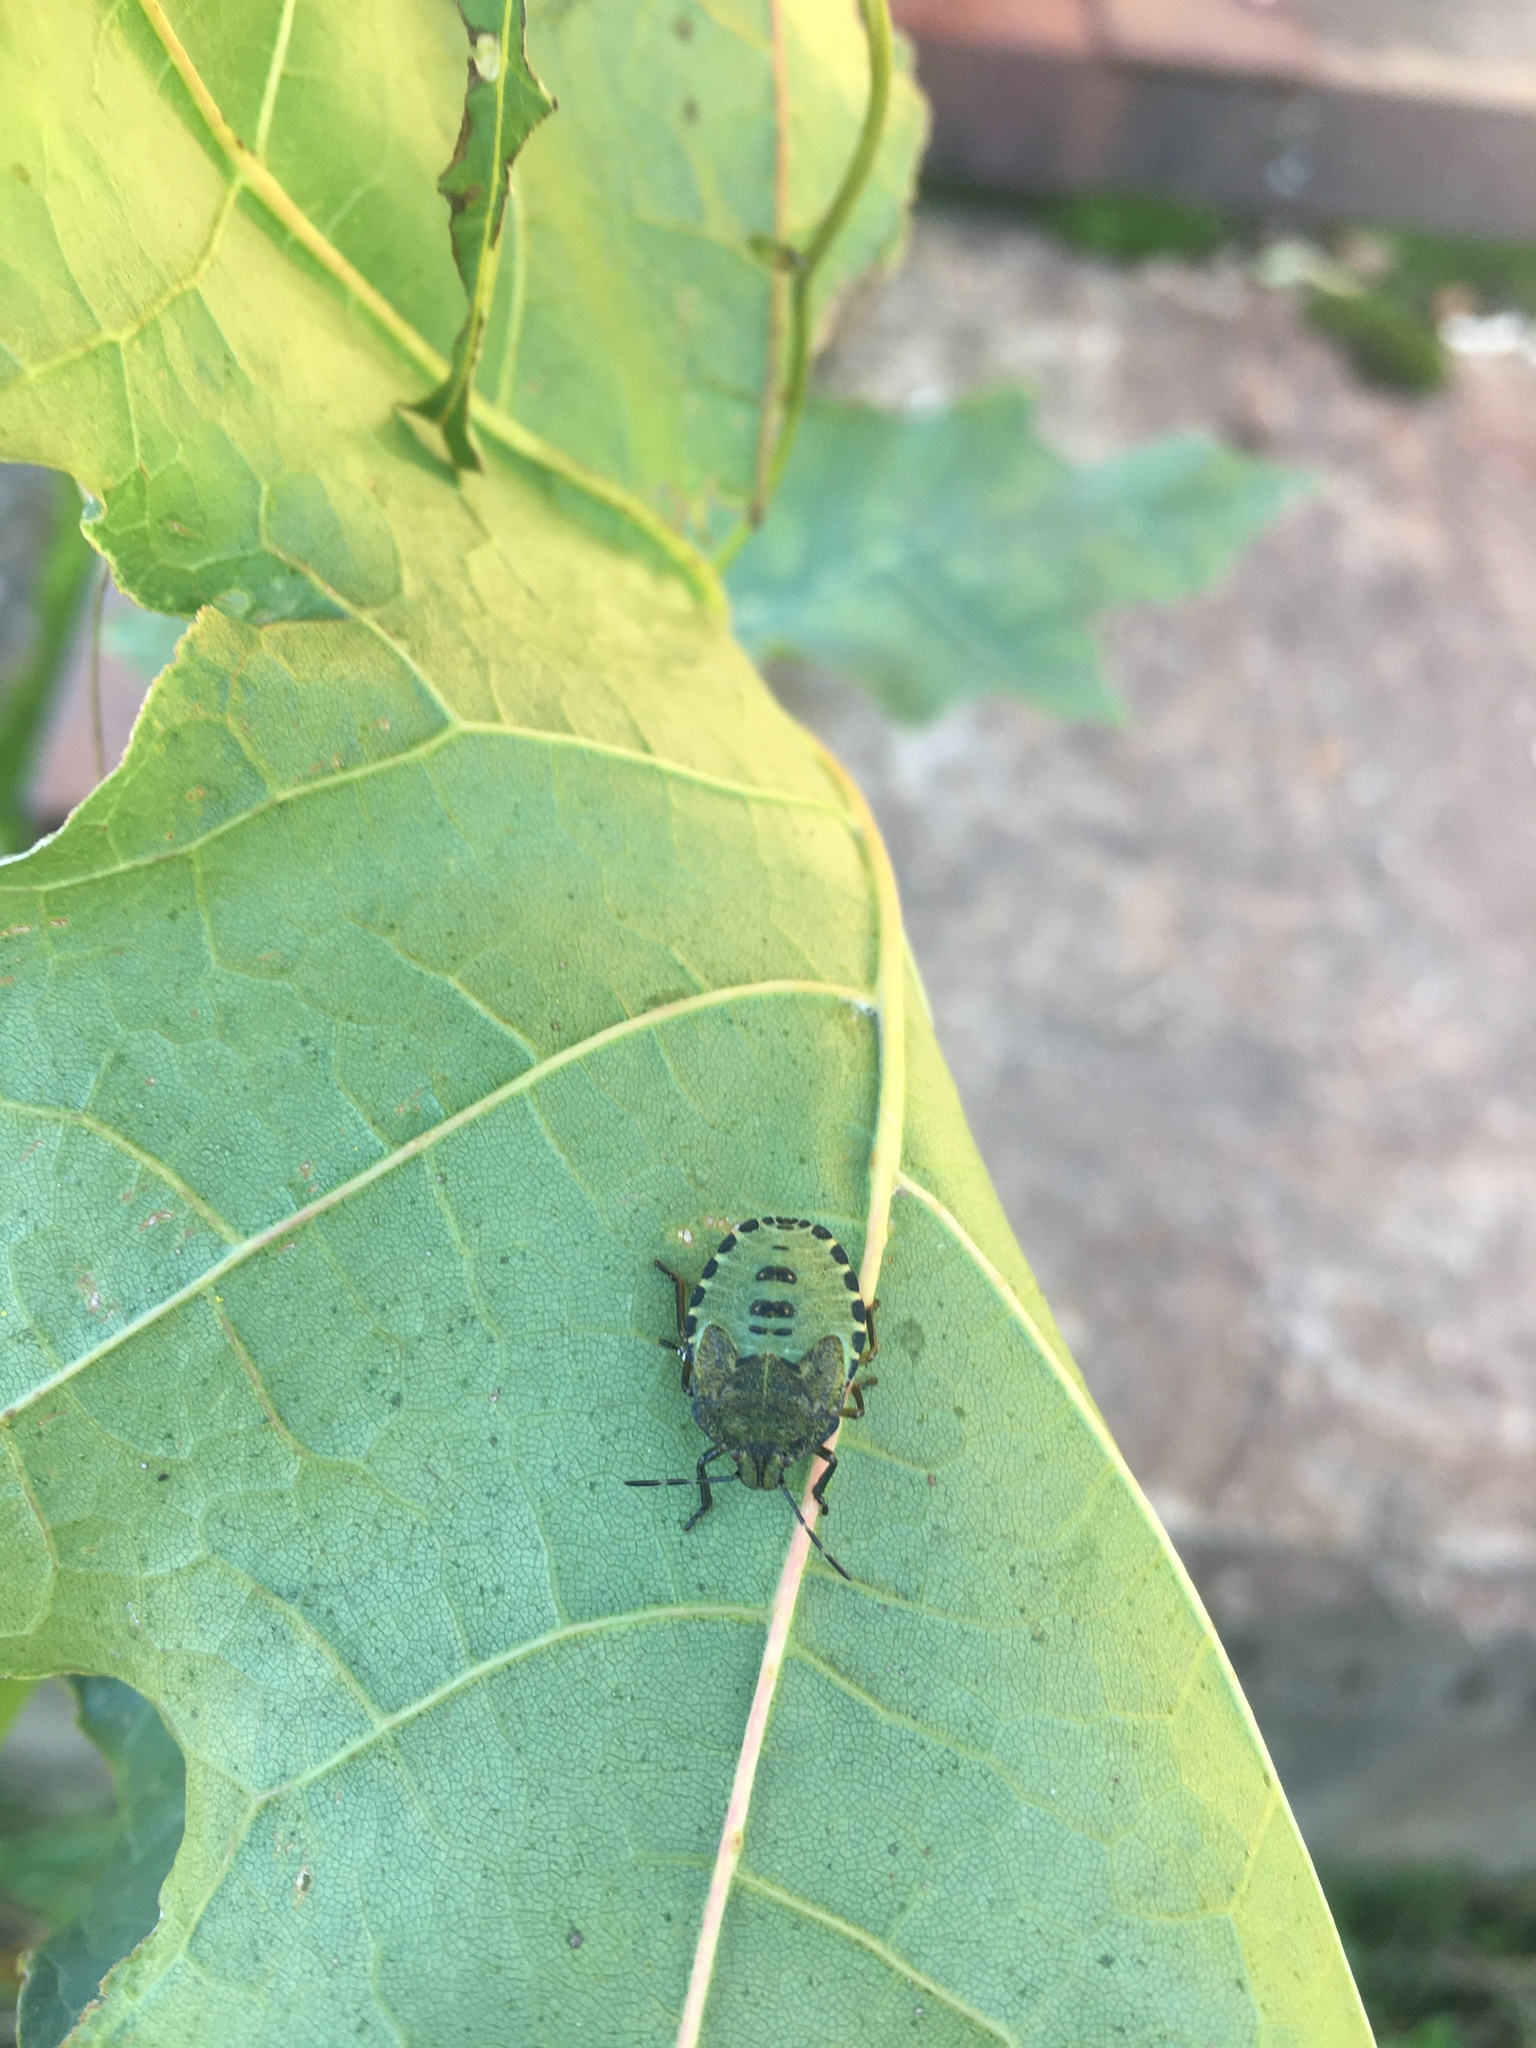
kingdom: Animalia
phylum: Arthropoda
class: Insecta
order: Hemiptera
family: Pentatomidae
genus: Palomena
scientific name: Palomena prasina
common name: Green shieldbug
